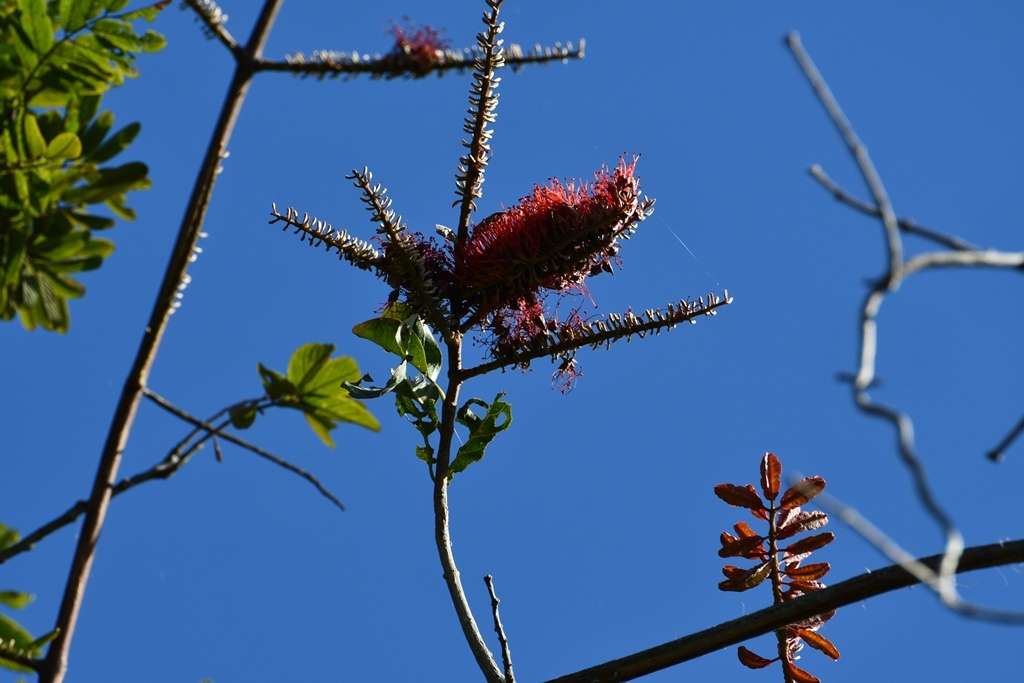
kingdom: Plantae
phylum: Tracheophyta
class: Magnoliopsida
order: Myrtales
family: Combretaceae
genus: Combretum
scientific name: Combretum farinosum
